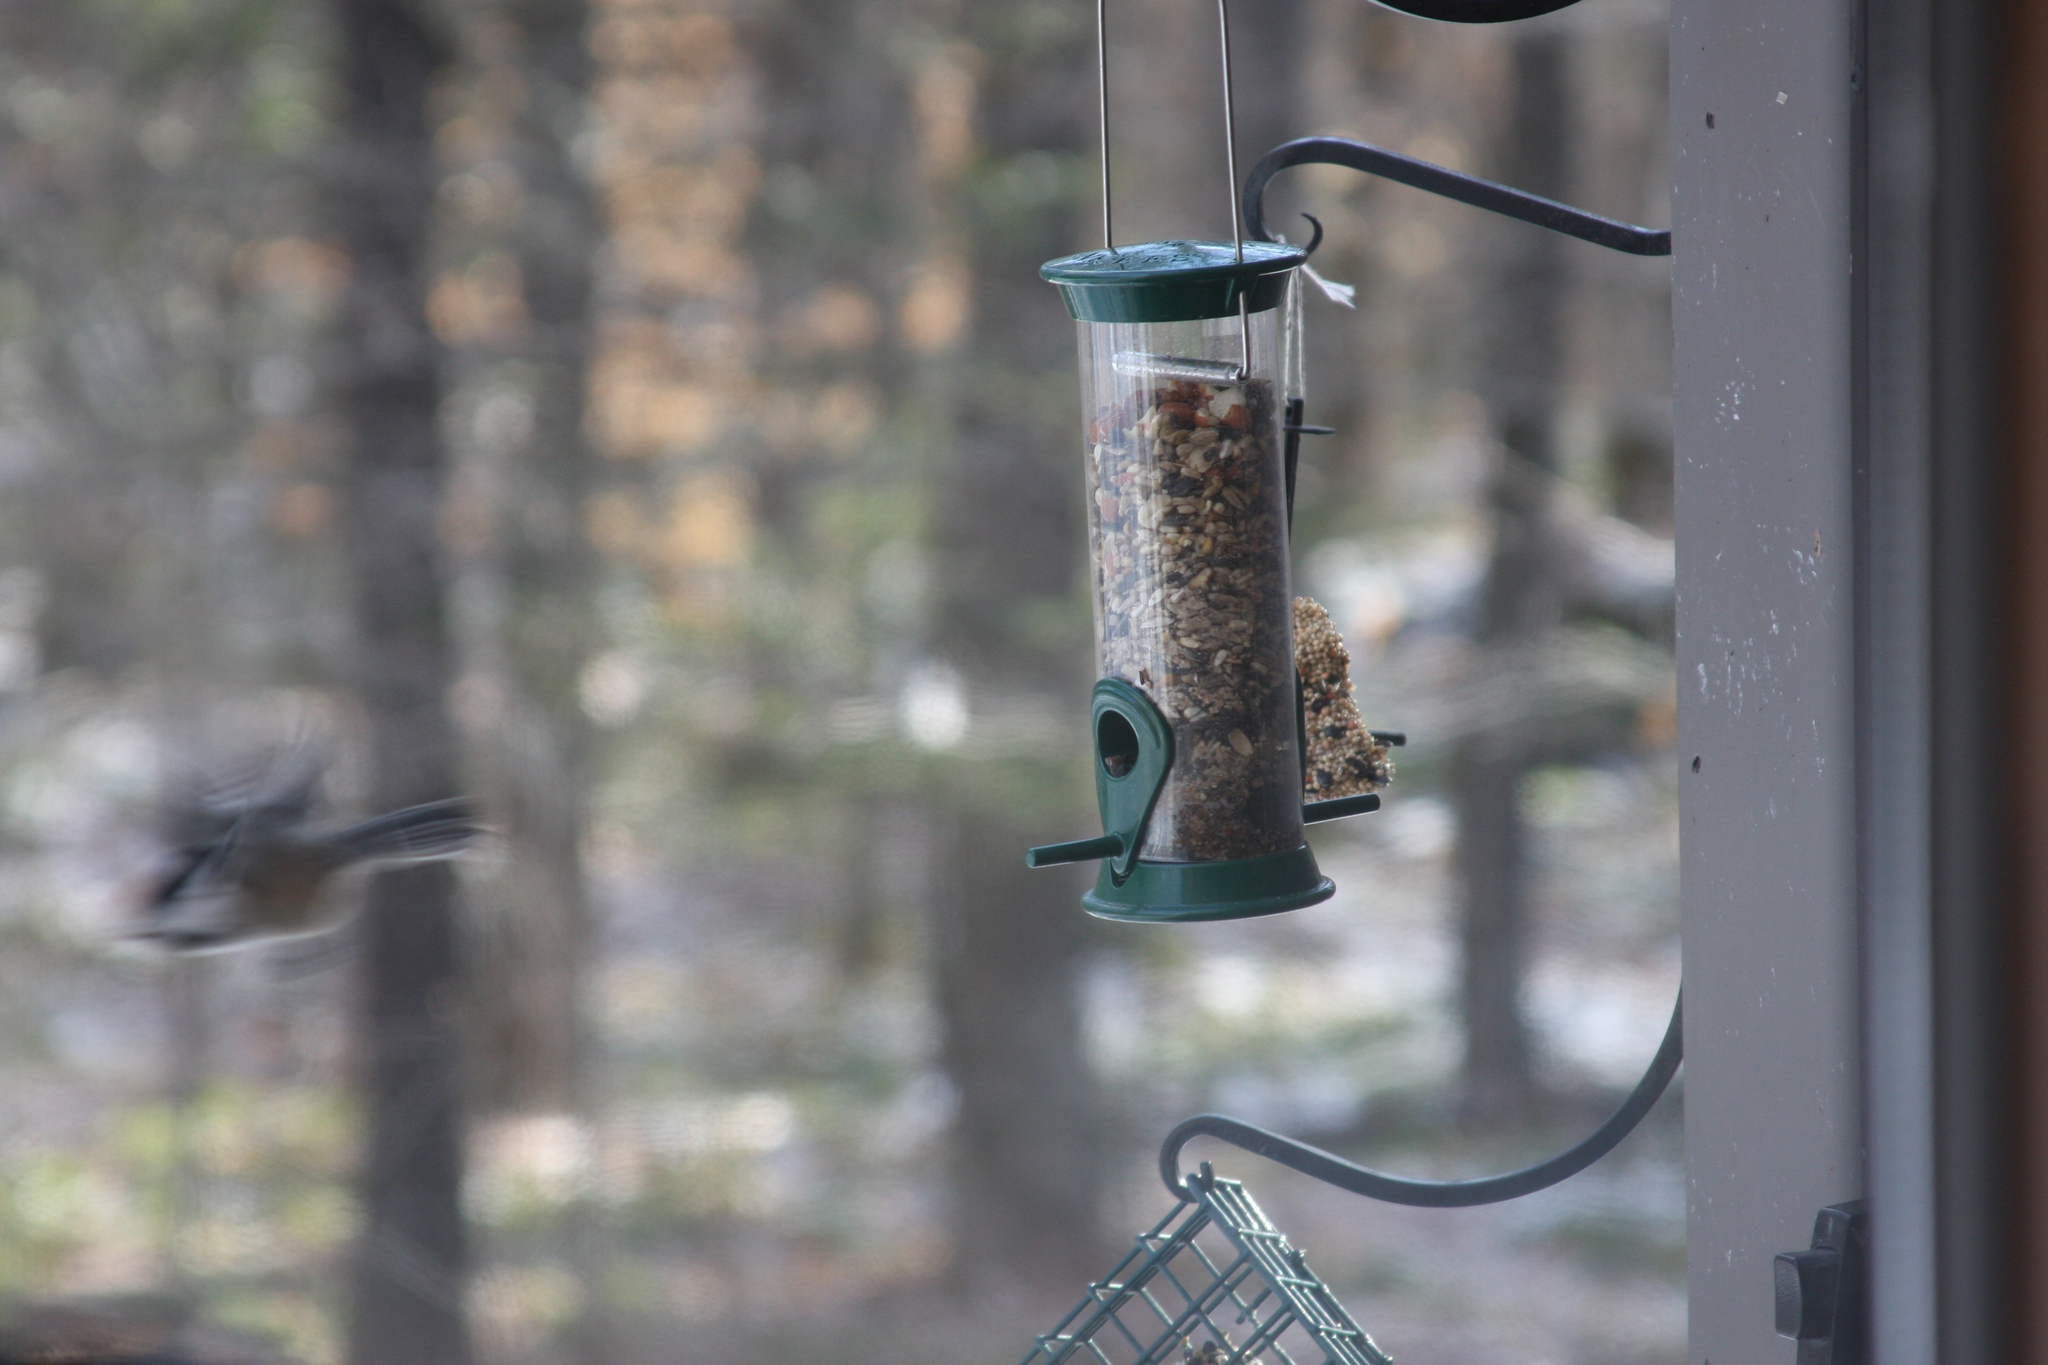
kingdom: Animalia
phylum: Chordata
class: Aves
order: Passeriformes
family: Paridae
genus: Poecile
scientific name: Poecile atricapillus
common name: Black-capped chickadee
